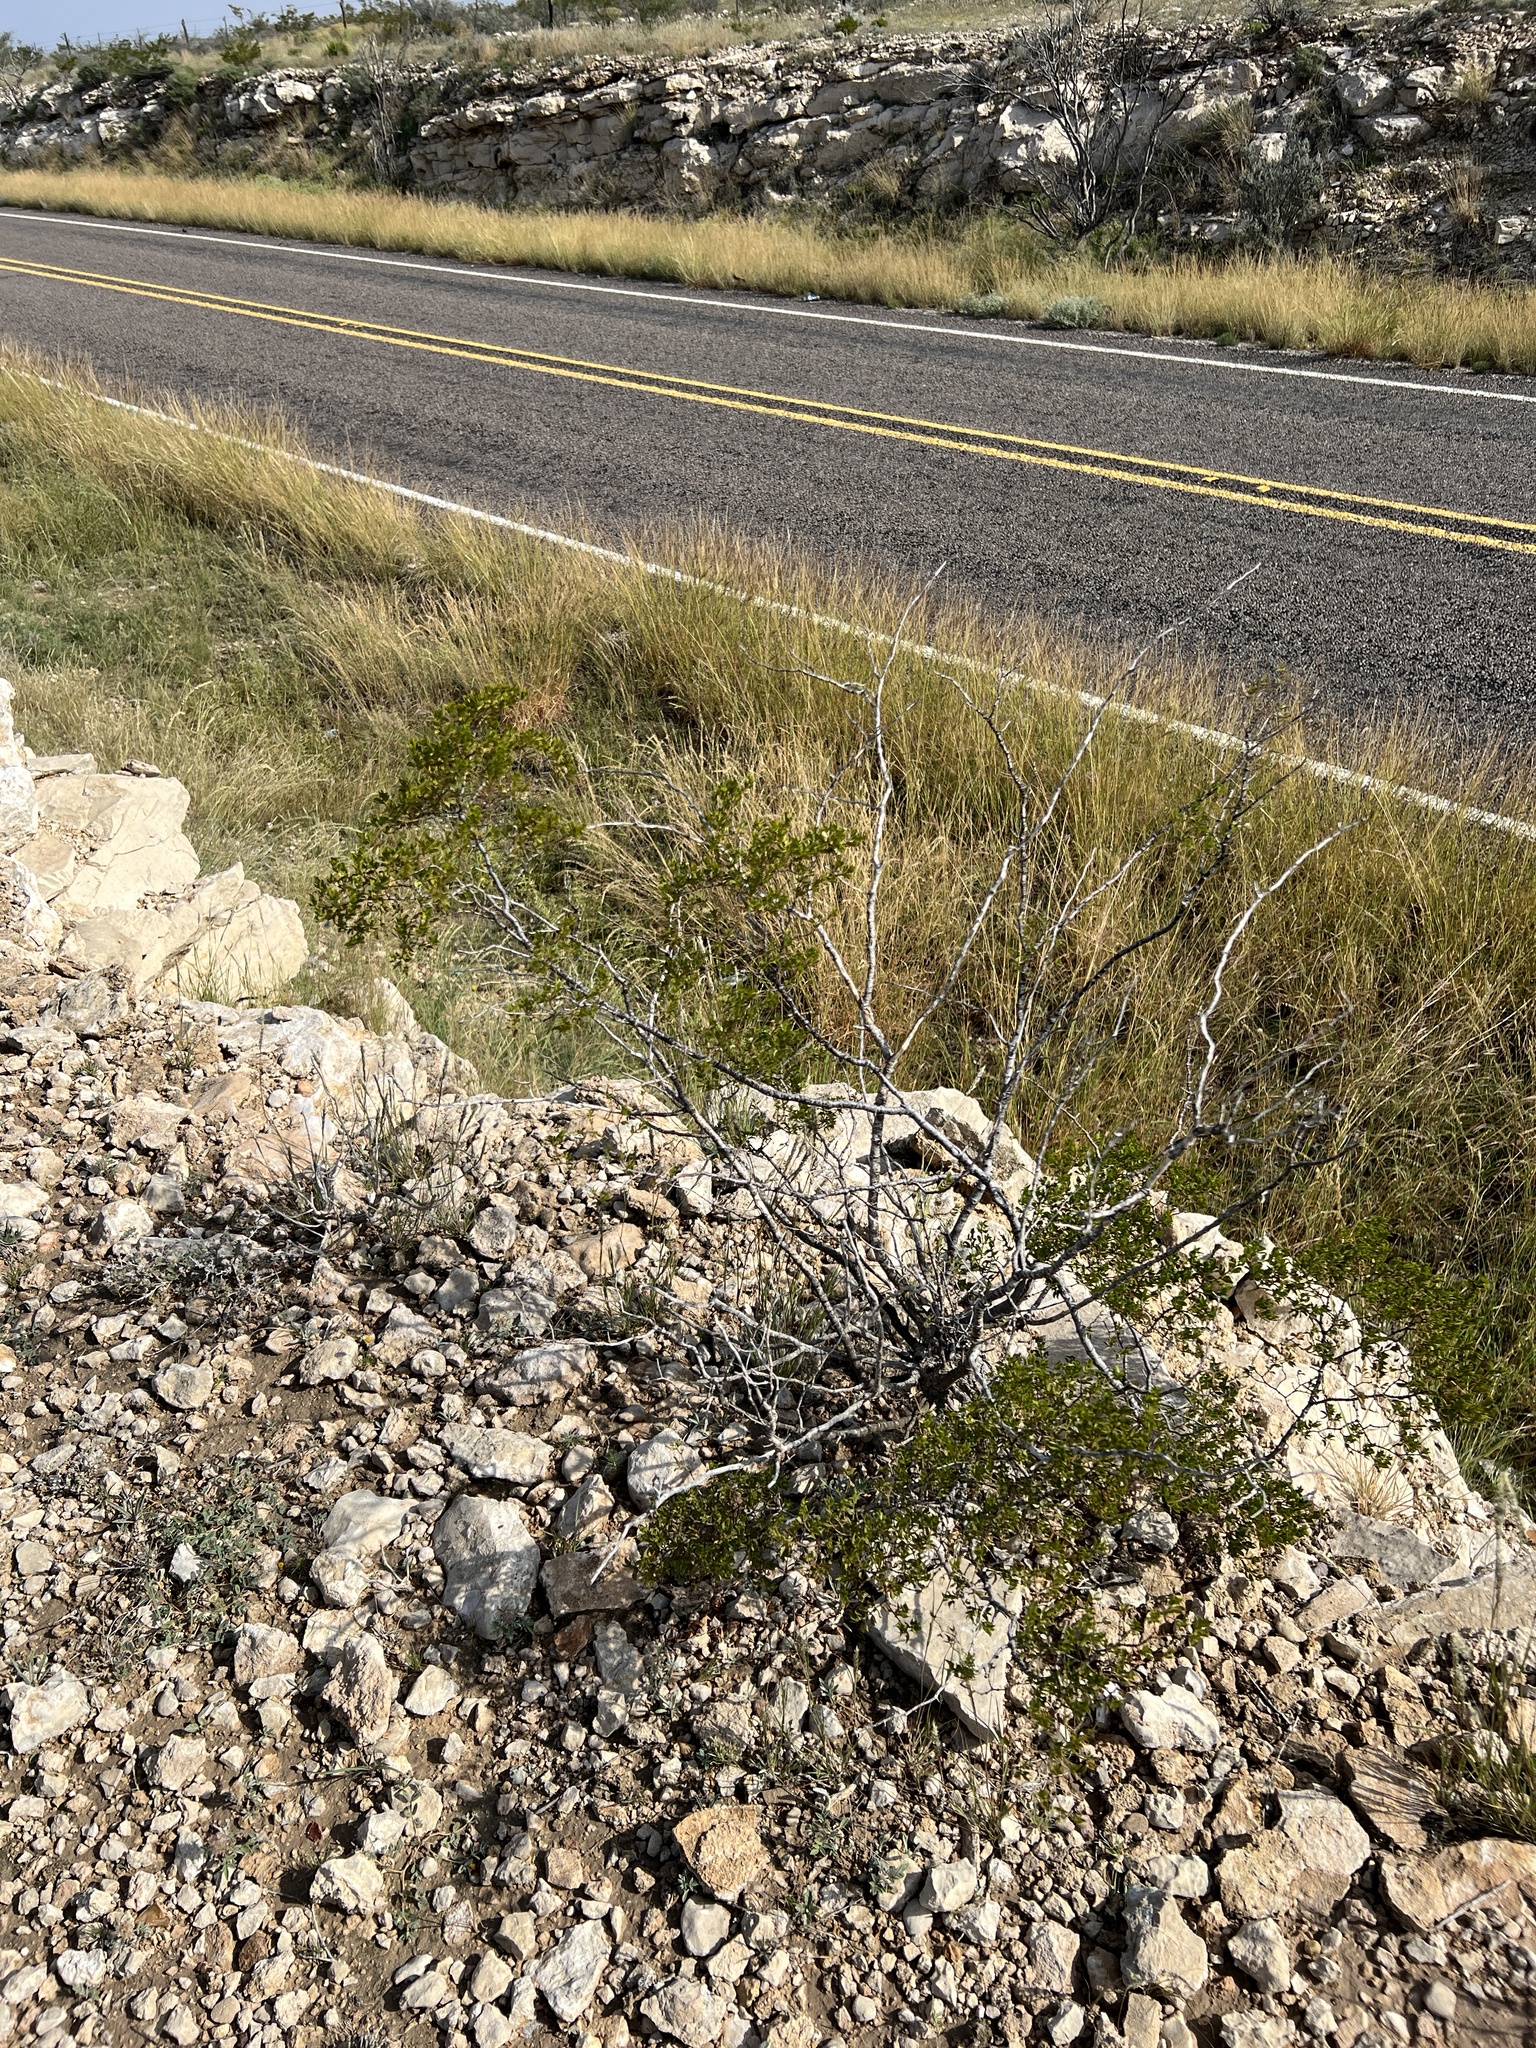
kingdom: Plantae
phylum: Tracheophyta
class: Magnoliopsida
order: Zygophyllales
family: Zygophyllaceae
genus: Larrea
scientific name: Larrea tridentata
